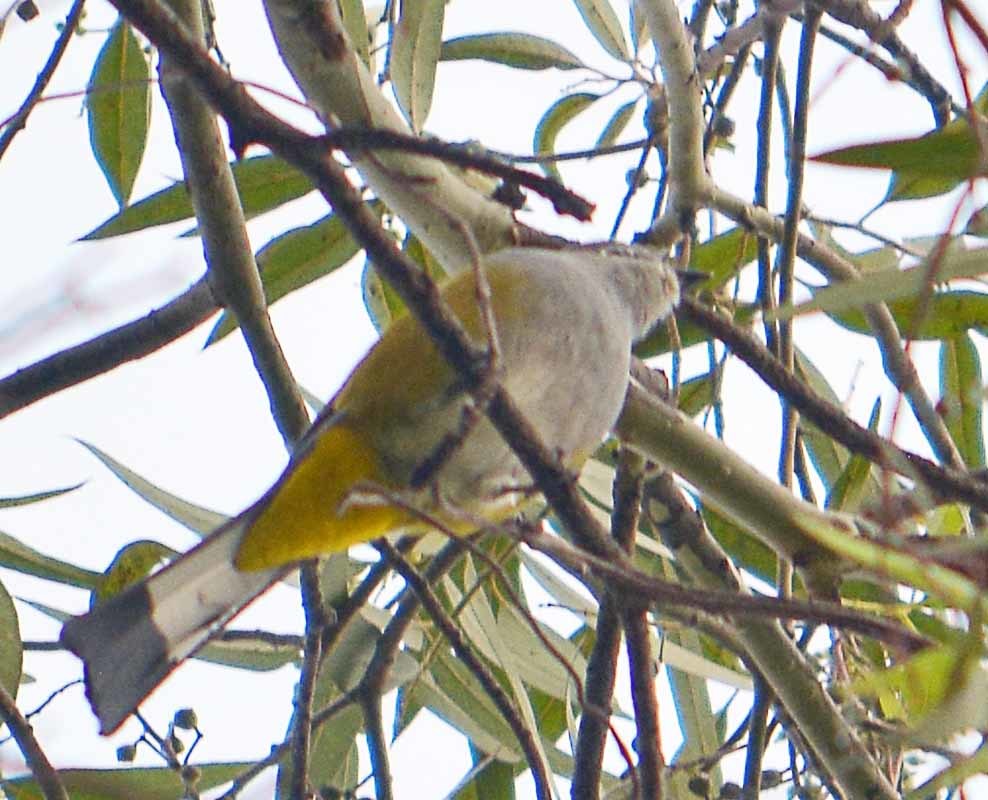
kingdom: Animalia
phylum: Chordata
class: Aves
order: Passeriformes
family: Ptilogonatidae
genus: Ptilogonys
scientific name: Ptilogonys cinereus
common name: Gray silky-flycatcher
